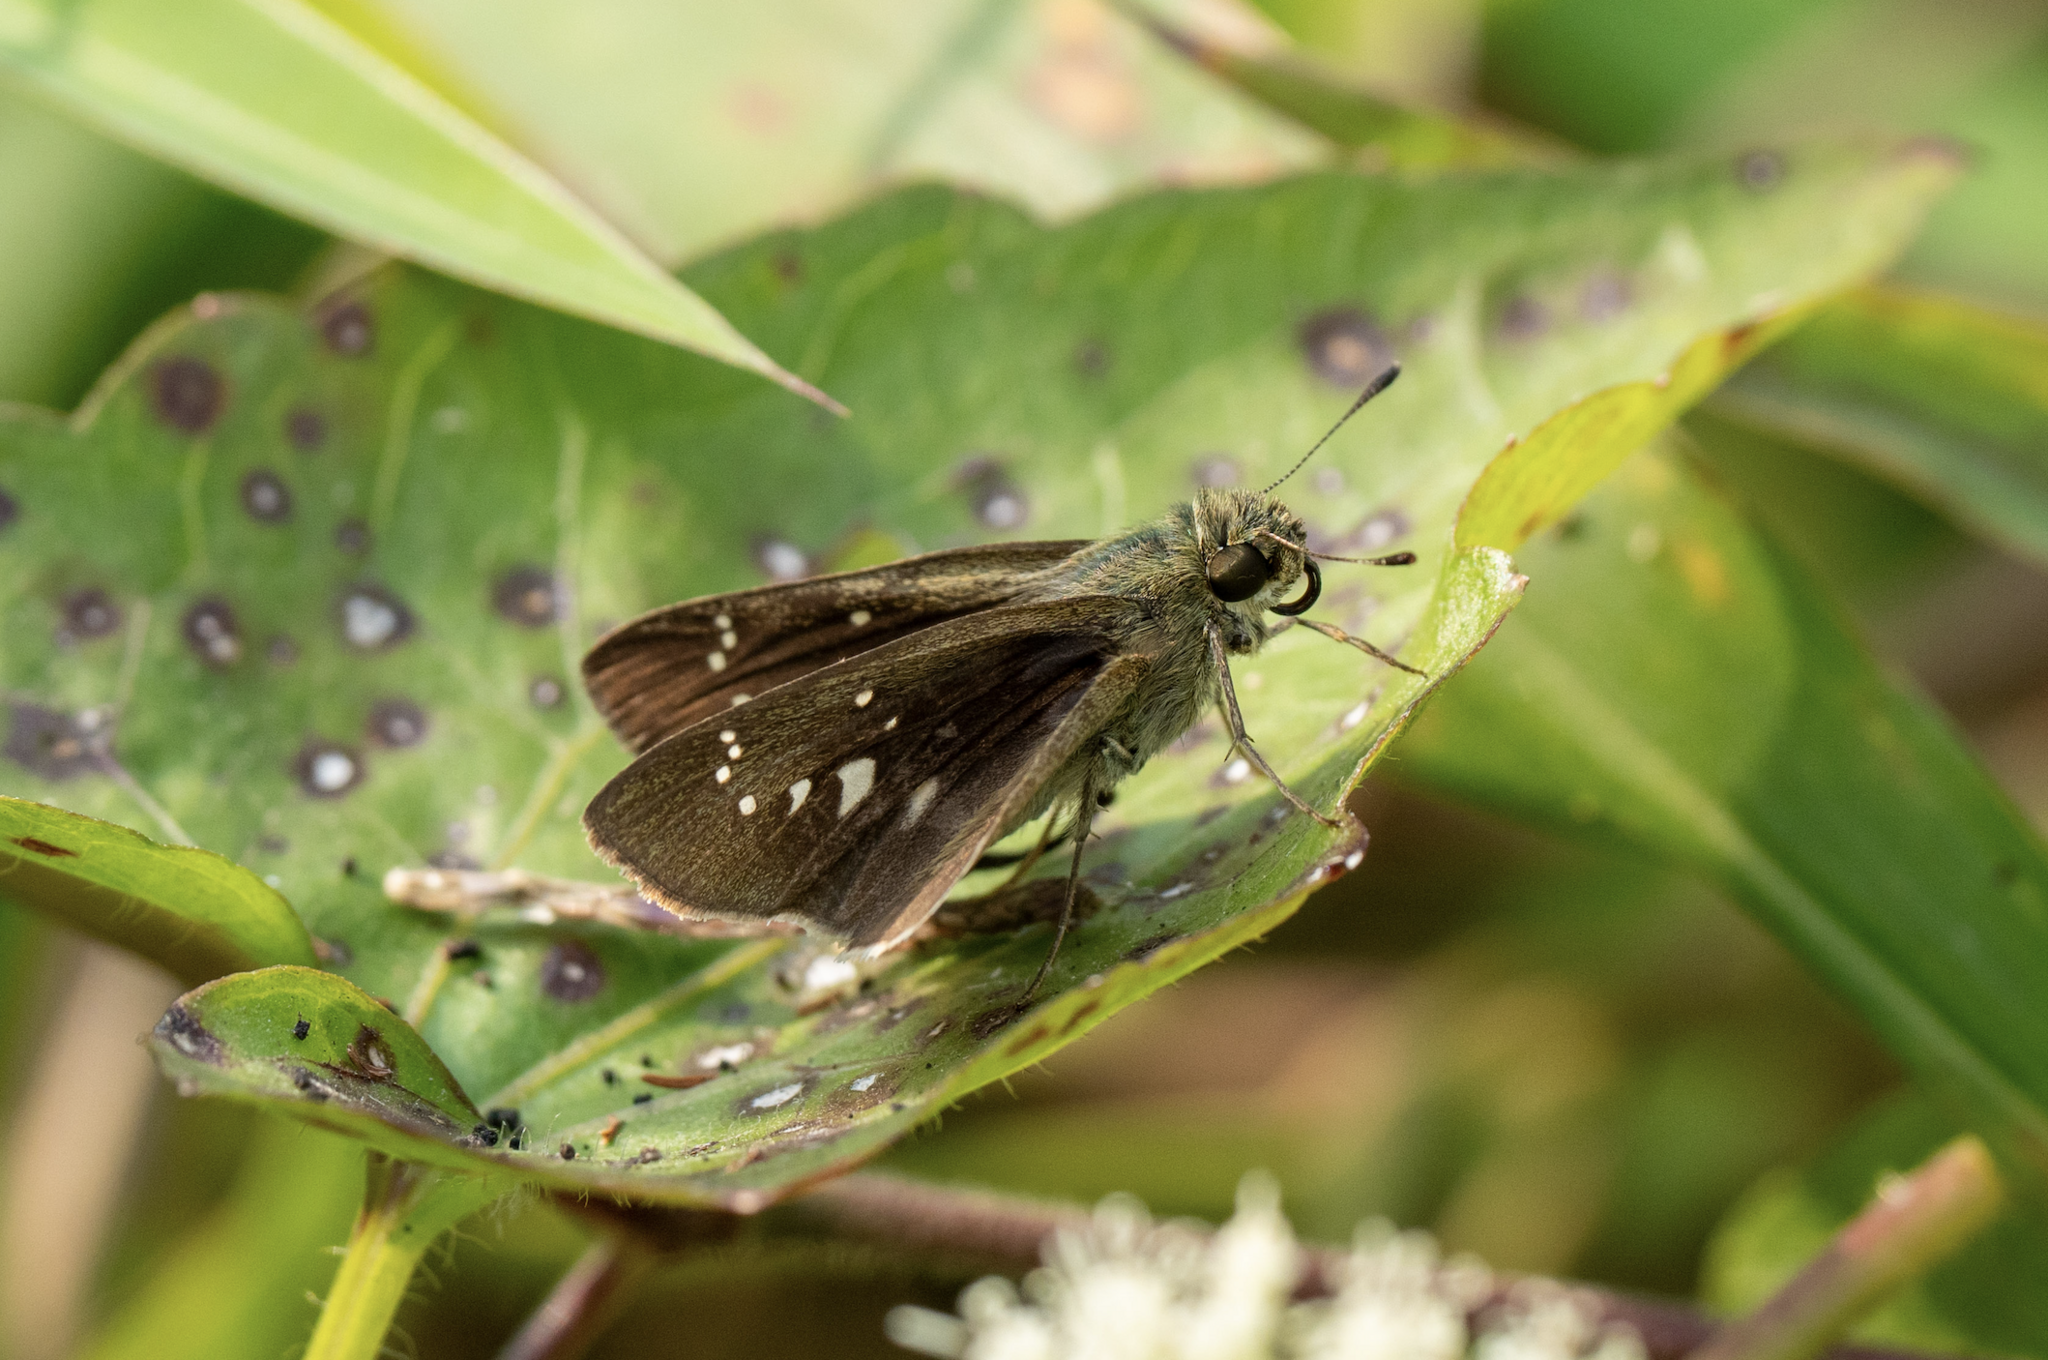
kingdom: Animalia
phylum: Arthropoda
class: Insecta
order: Lepidoptera
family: Hesperiidae
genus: Borbo
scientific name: Borbo cinnara
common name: Formosan swift
